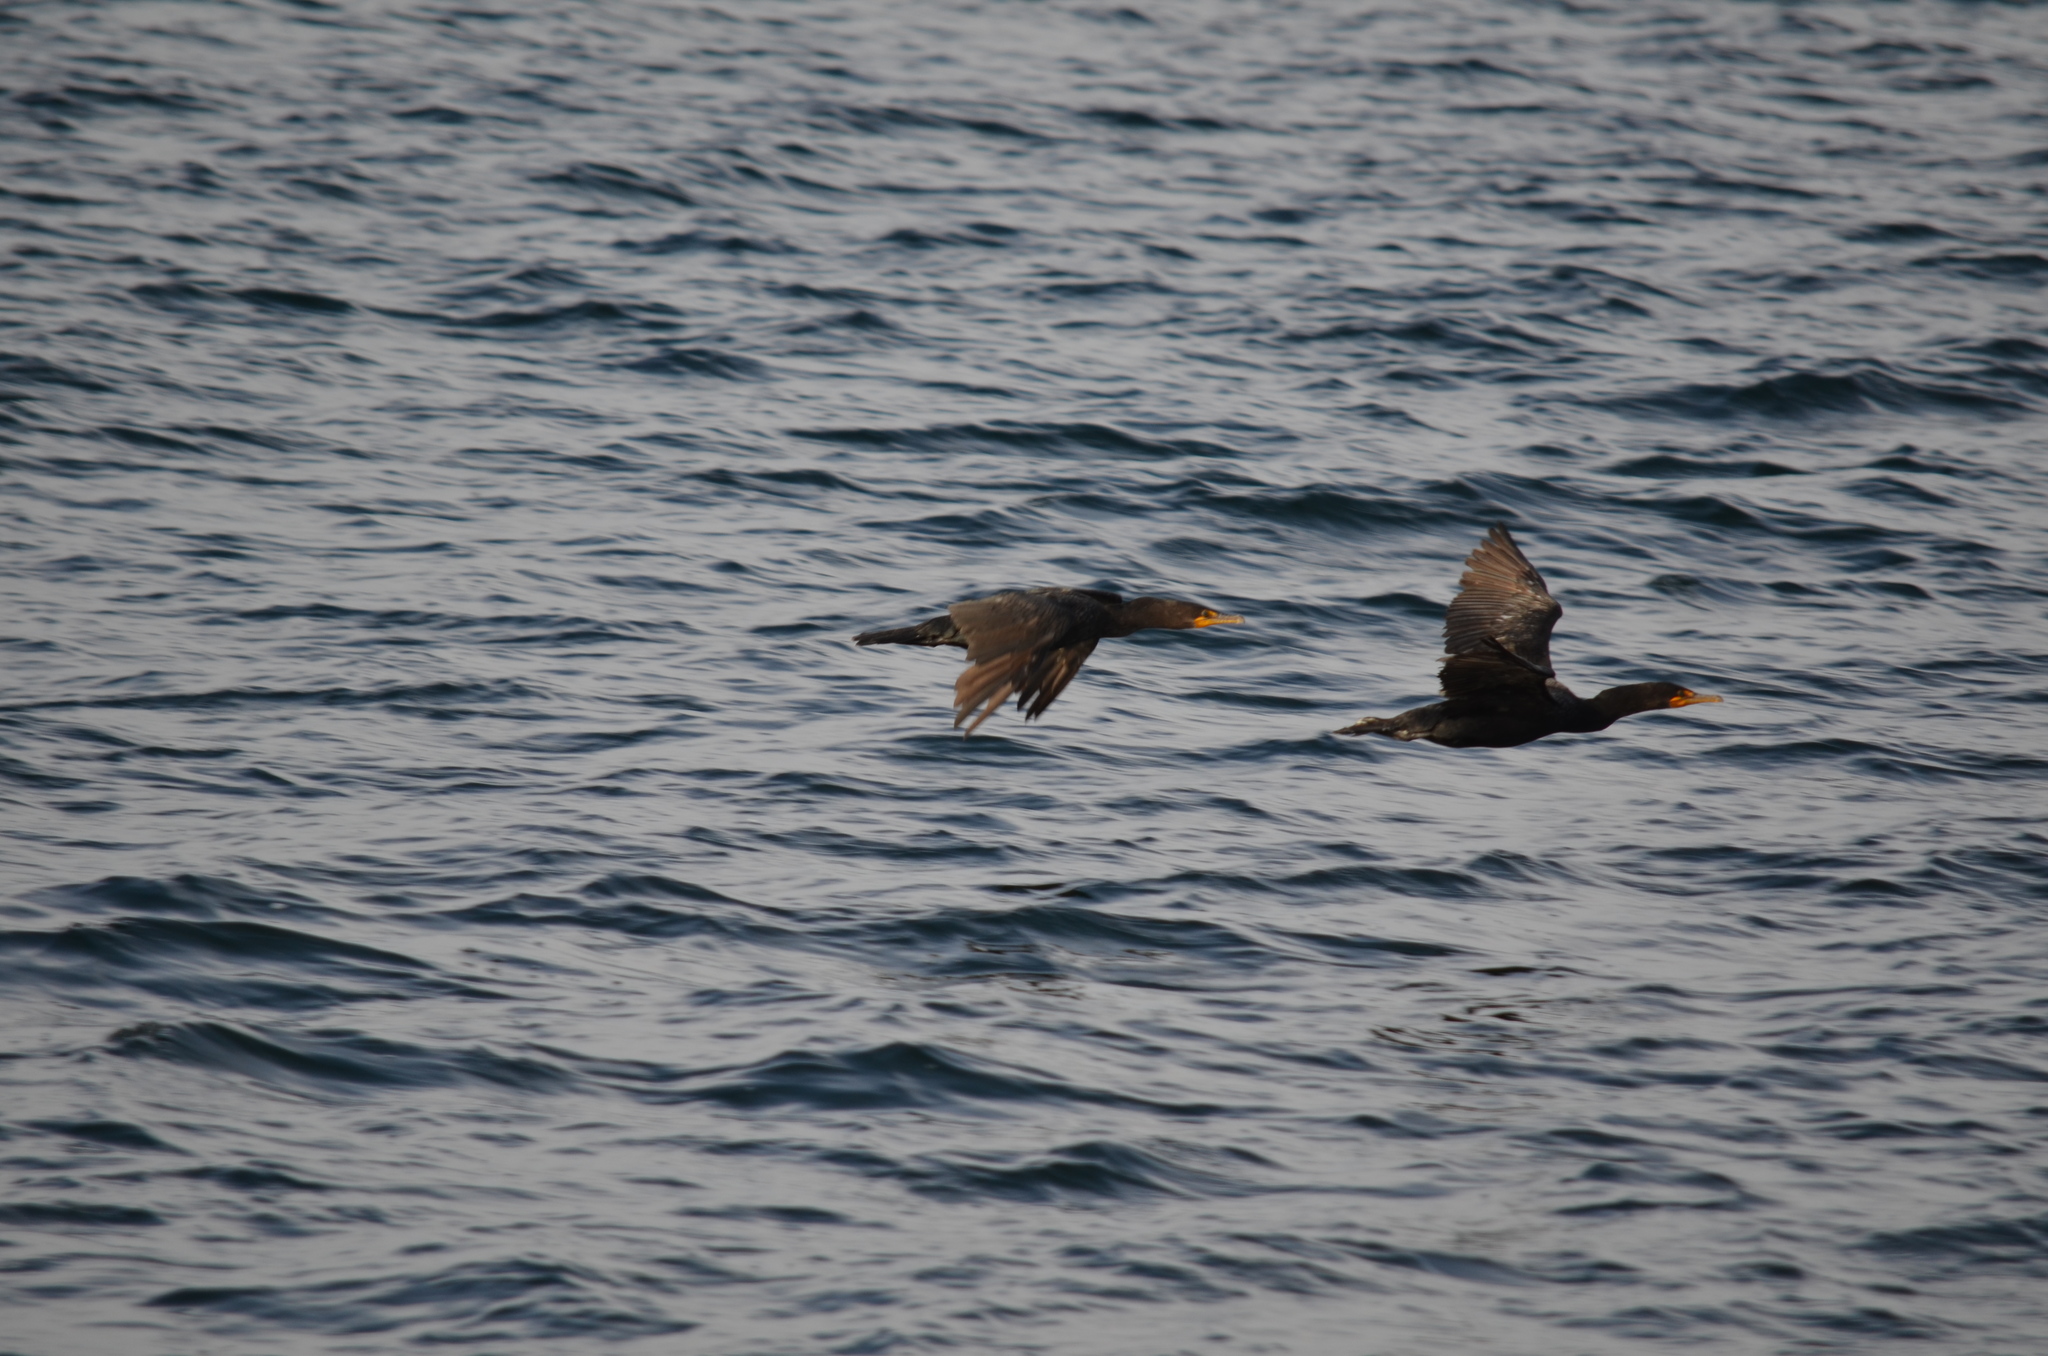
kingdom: Animalia
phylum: Chordata
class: Aves
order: Suliformes
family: Phalacrocoracidae
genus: Phalacrocorax
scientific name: Phalacrocorax auritus
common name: Double-crested cormorant
